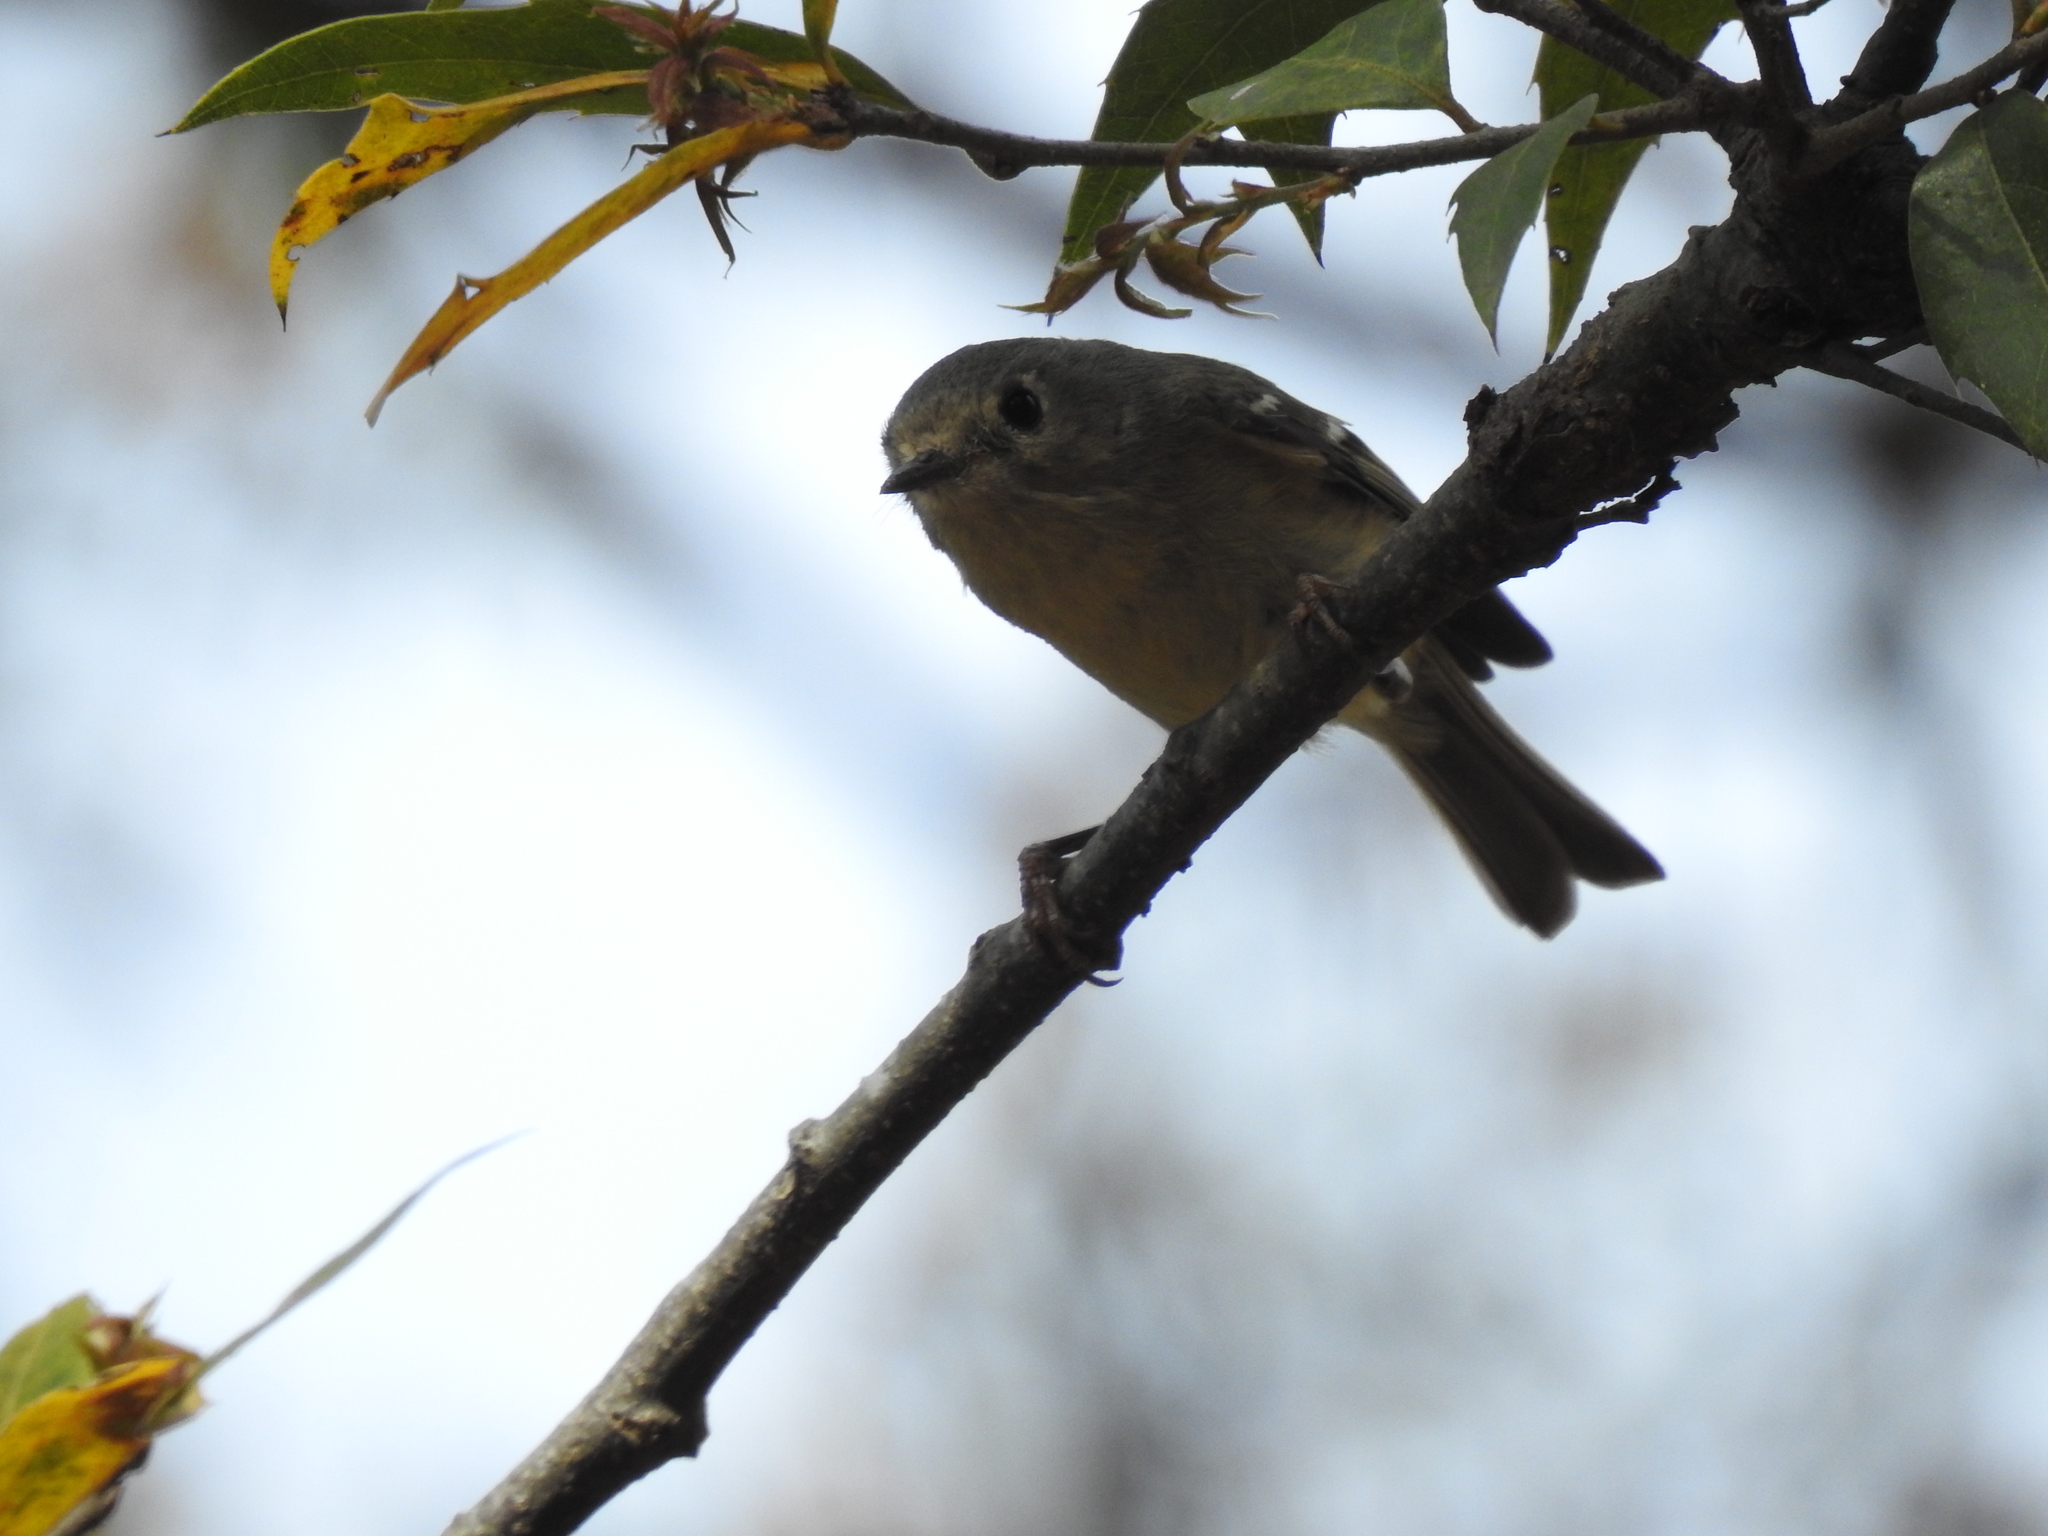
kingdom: Animalia
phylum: Chordata
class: Aves
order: Passeriformes
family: Regulidae
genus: Regulus
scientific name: Regulus calendula
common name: Ruby-crowned kinglet
